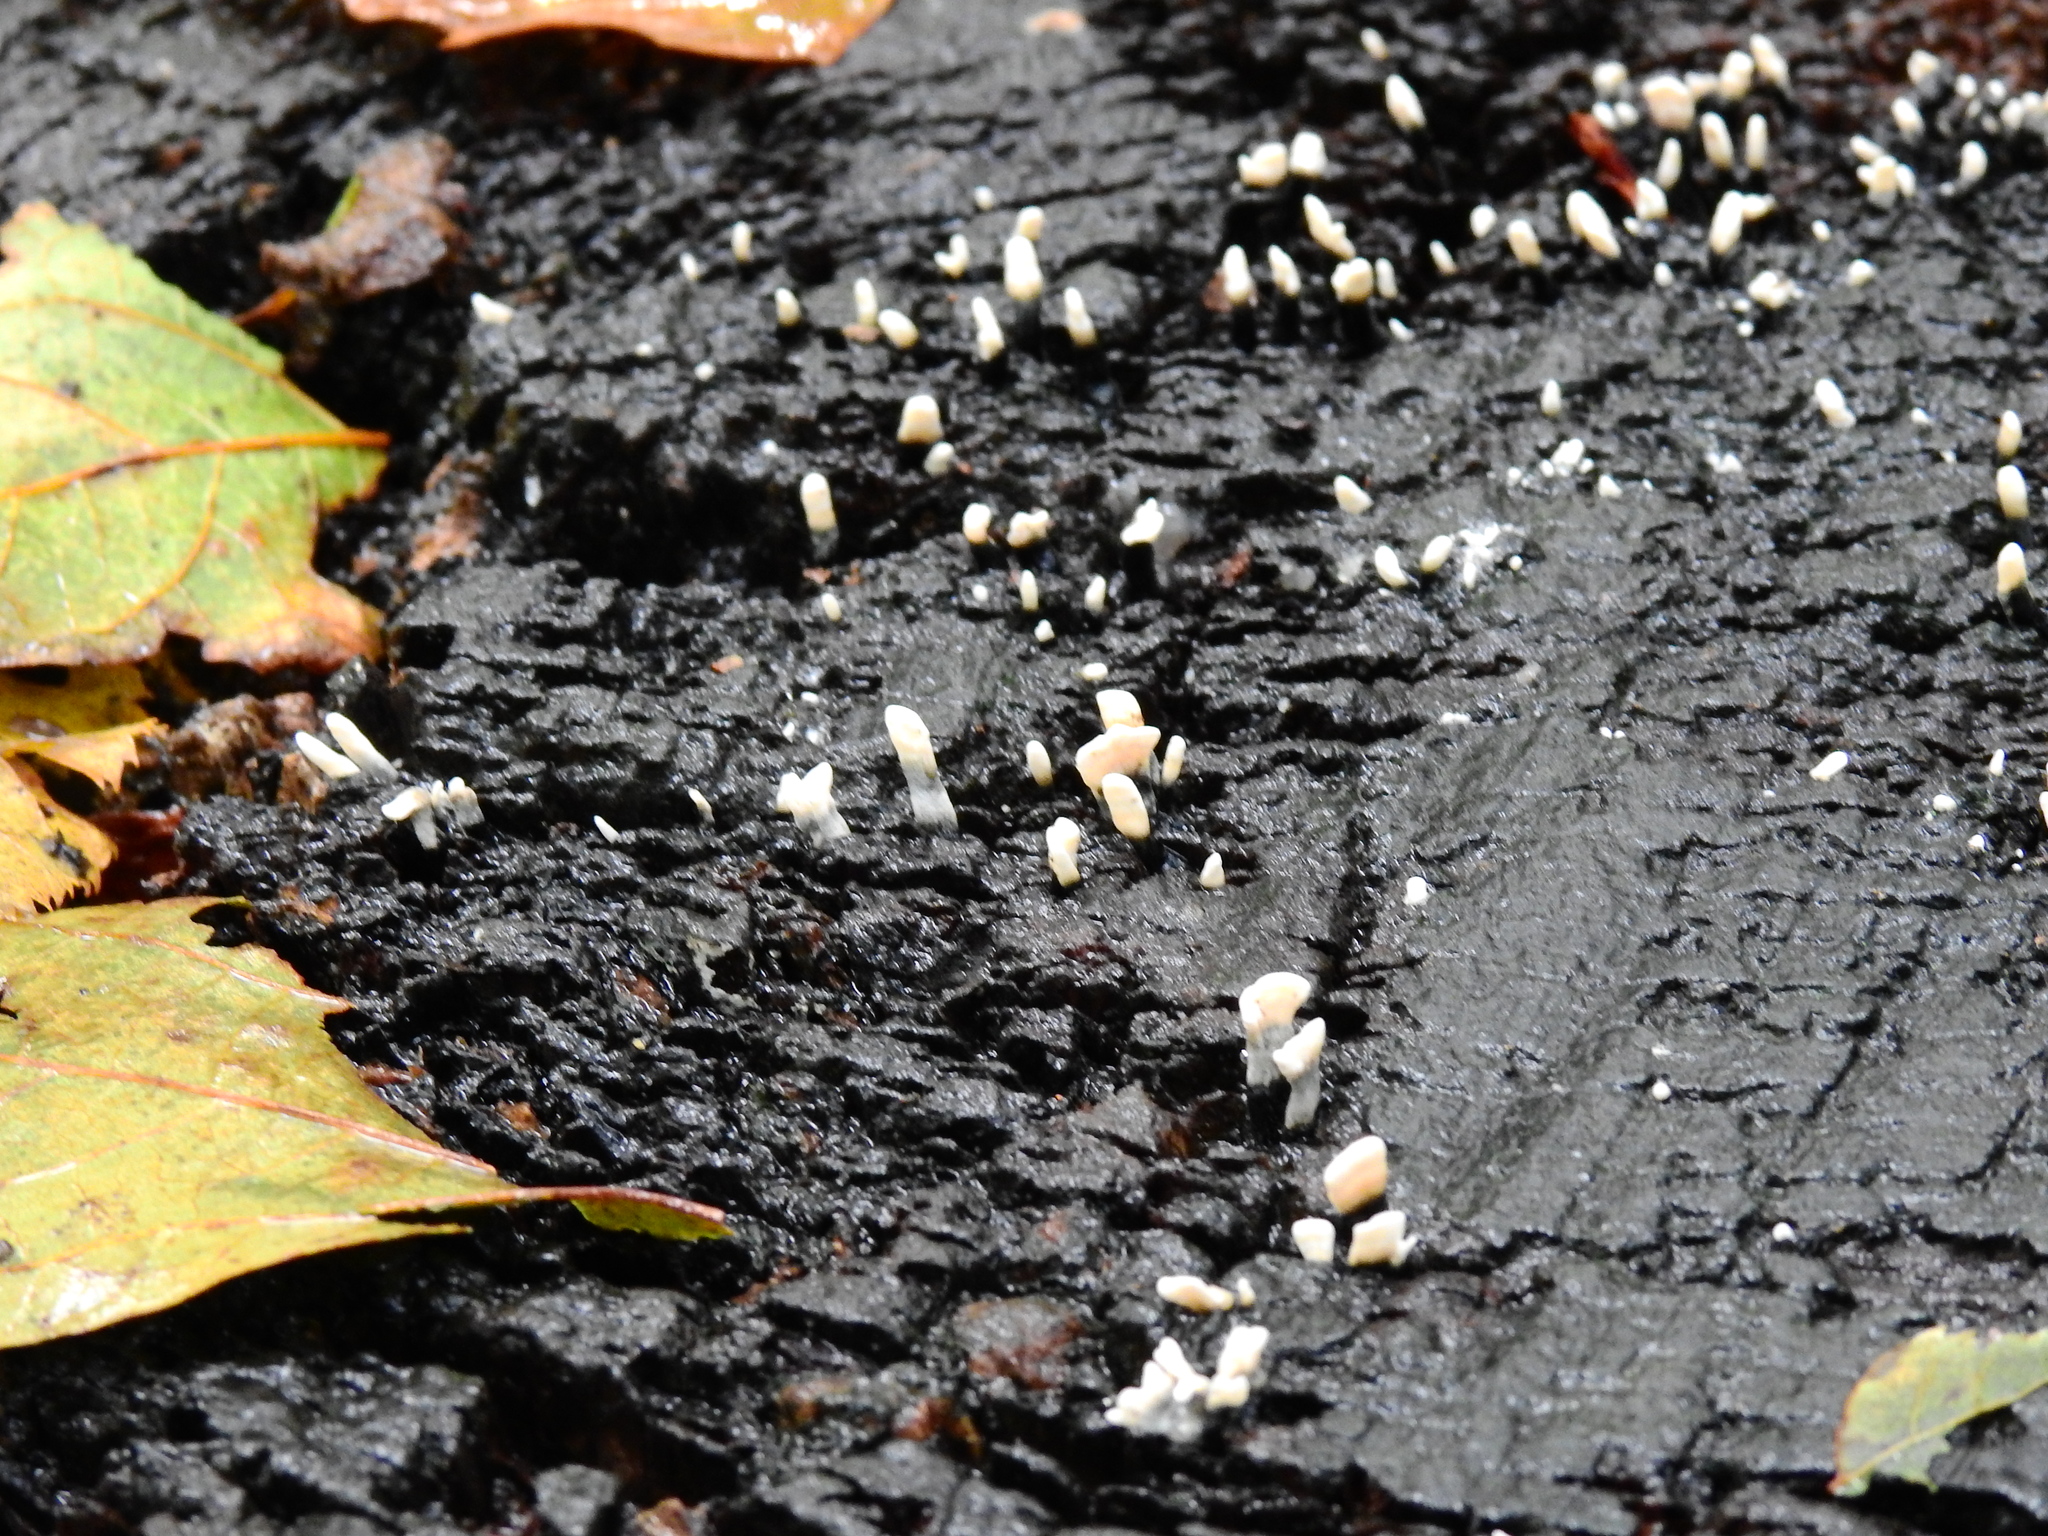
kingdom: Fungi
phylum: Ascomycota
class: Sordariomycetes
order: Xylariales
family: Xylariaceae
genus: Xylaria
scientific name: Xylaria hypoxylon
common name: Candle-snuff fungus
